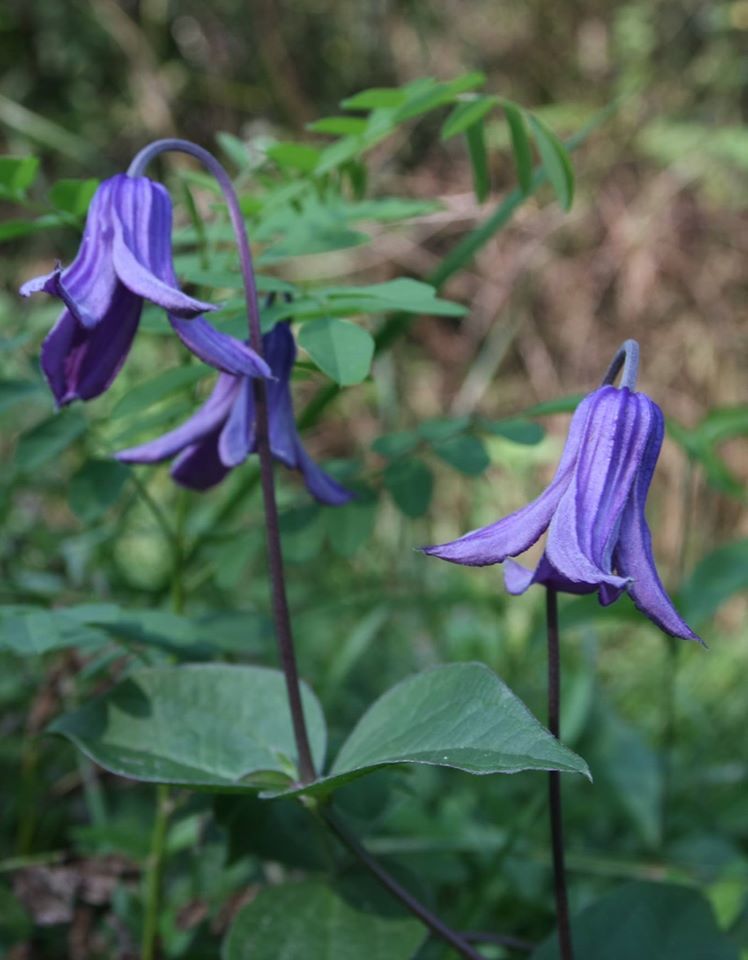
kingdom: Plantae
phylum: Tracheophyta
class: Magnoliopsida
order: Ranunculales
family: Ranunculaceae
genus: Clematis
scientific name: Clematis integrifolia
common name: Solitary clematis
